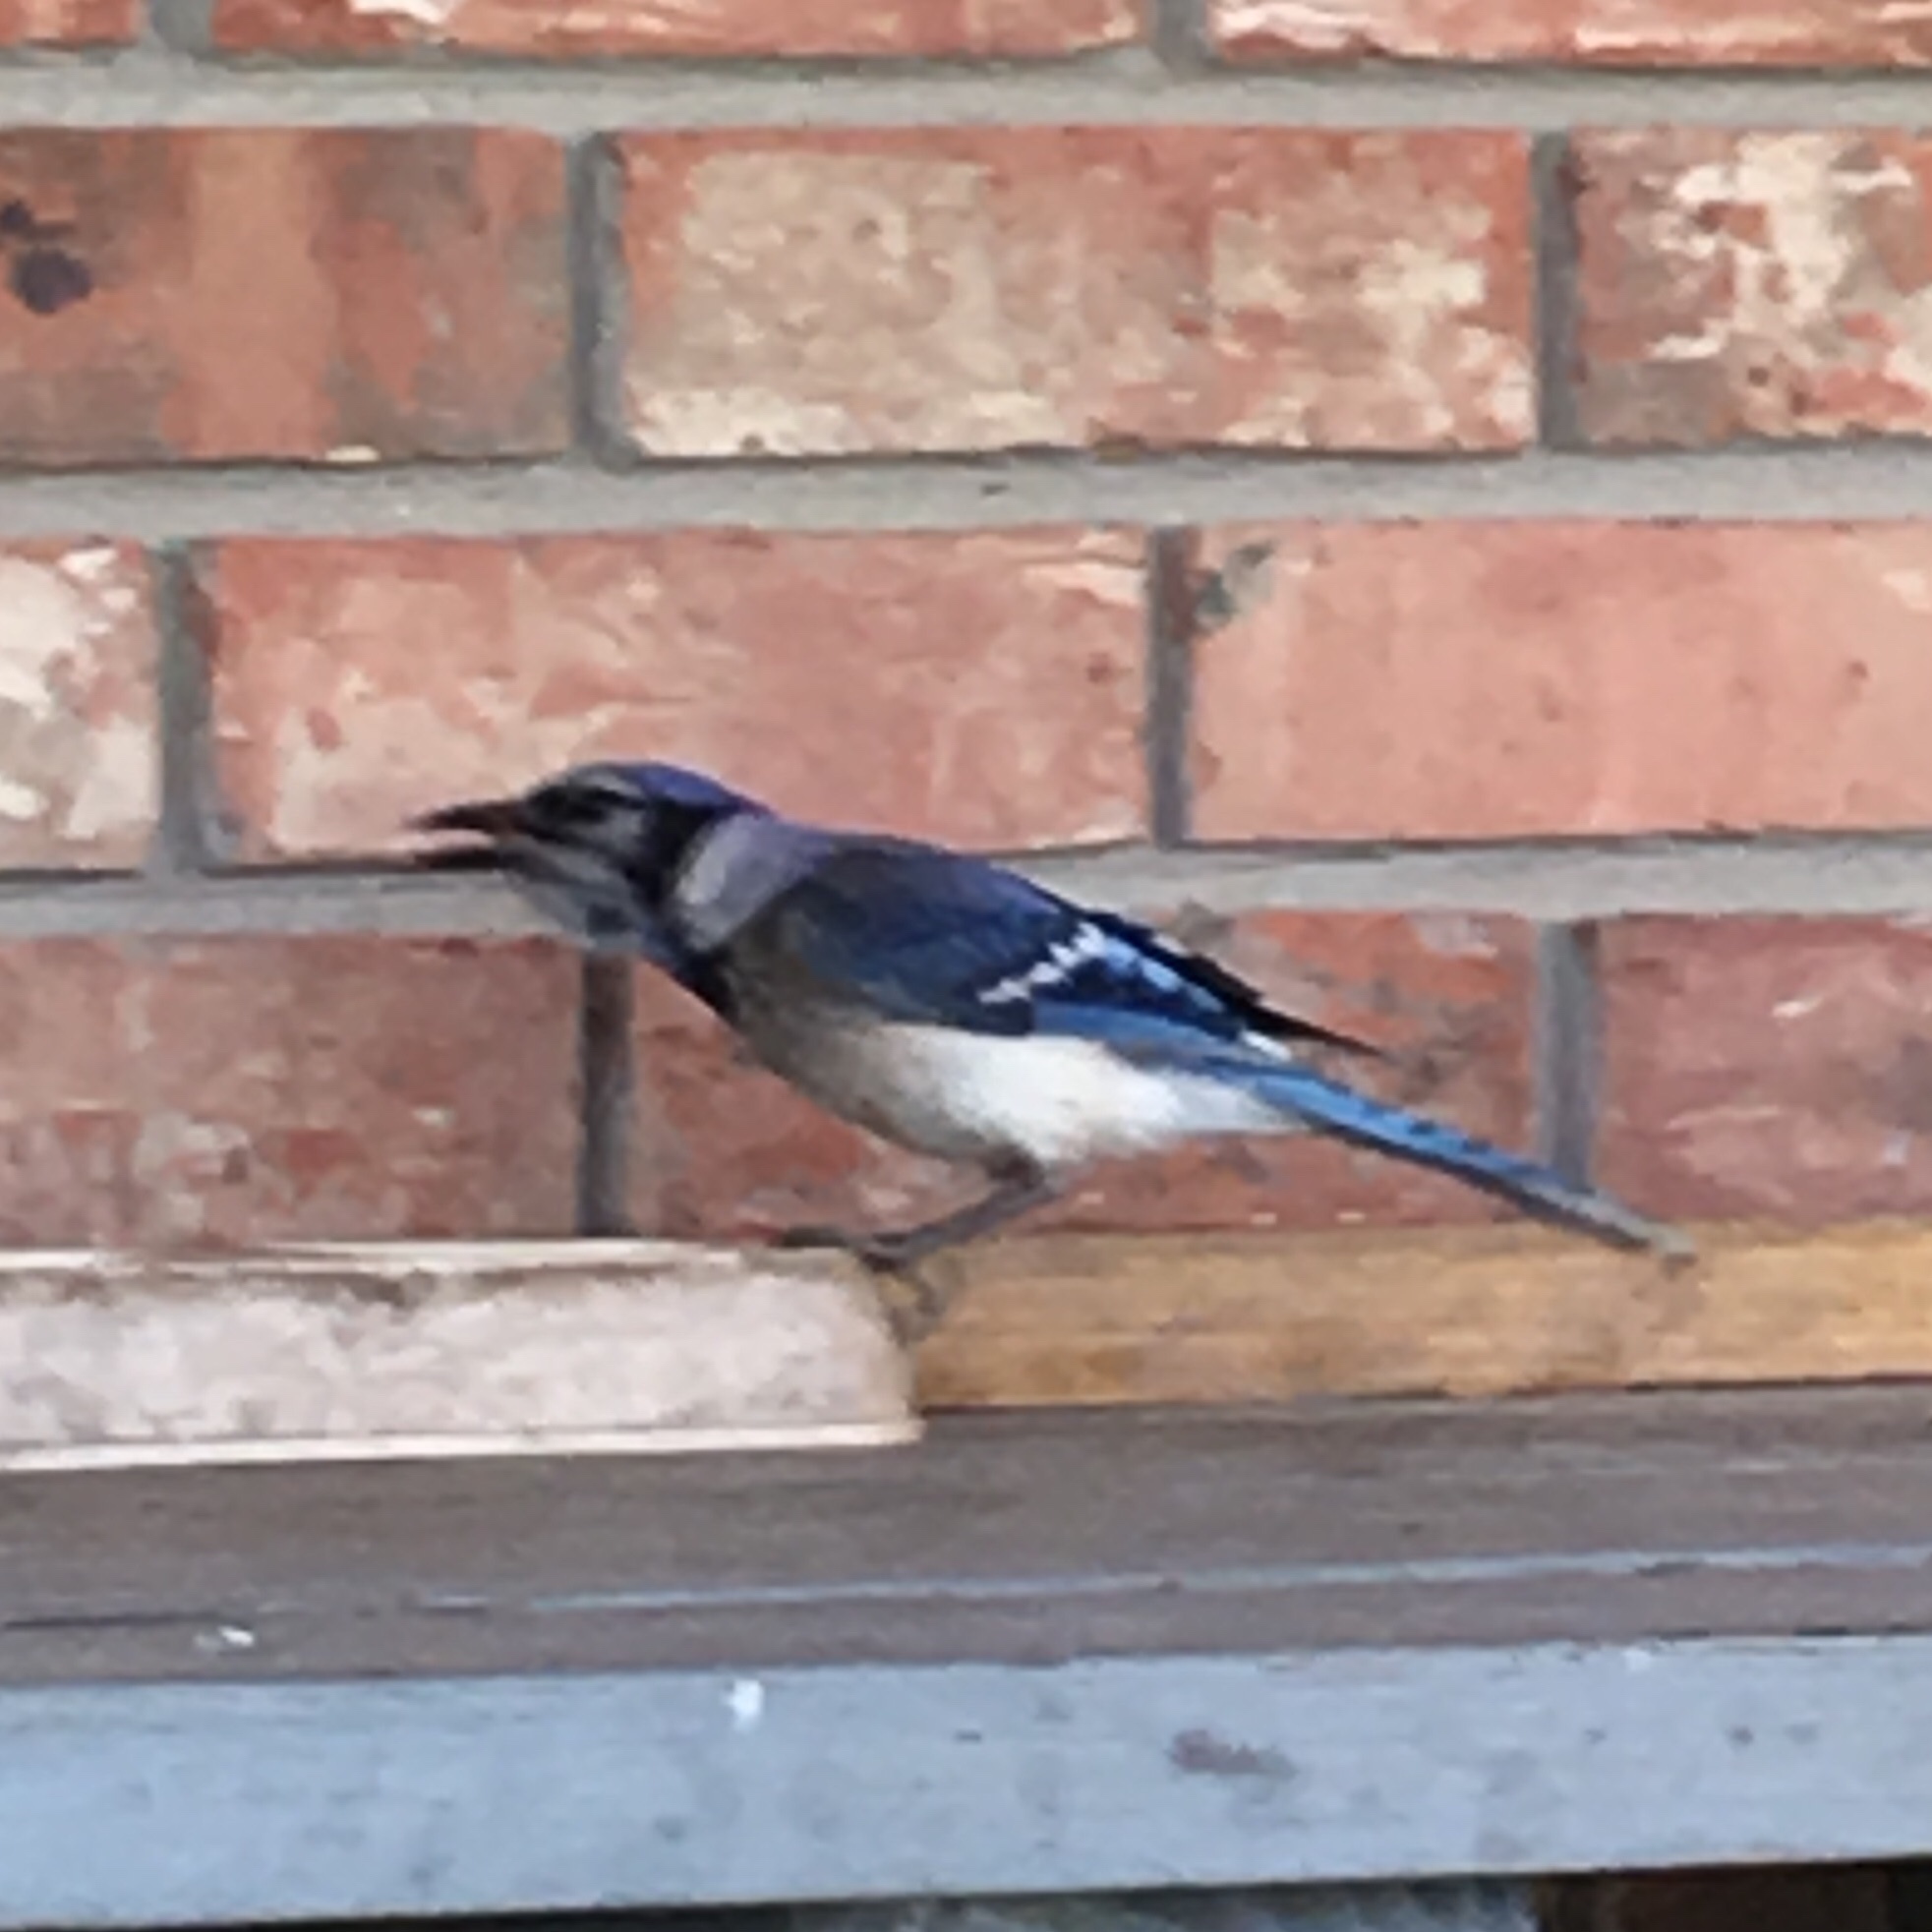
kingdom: Animalia
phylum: Chordata
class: Aves
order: Passeriformes
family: Corvidae
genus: Cyanocitta
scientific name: Cyanocitta cristata
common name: Blue jay
